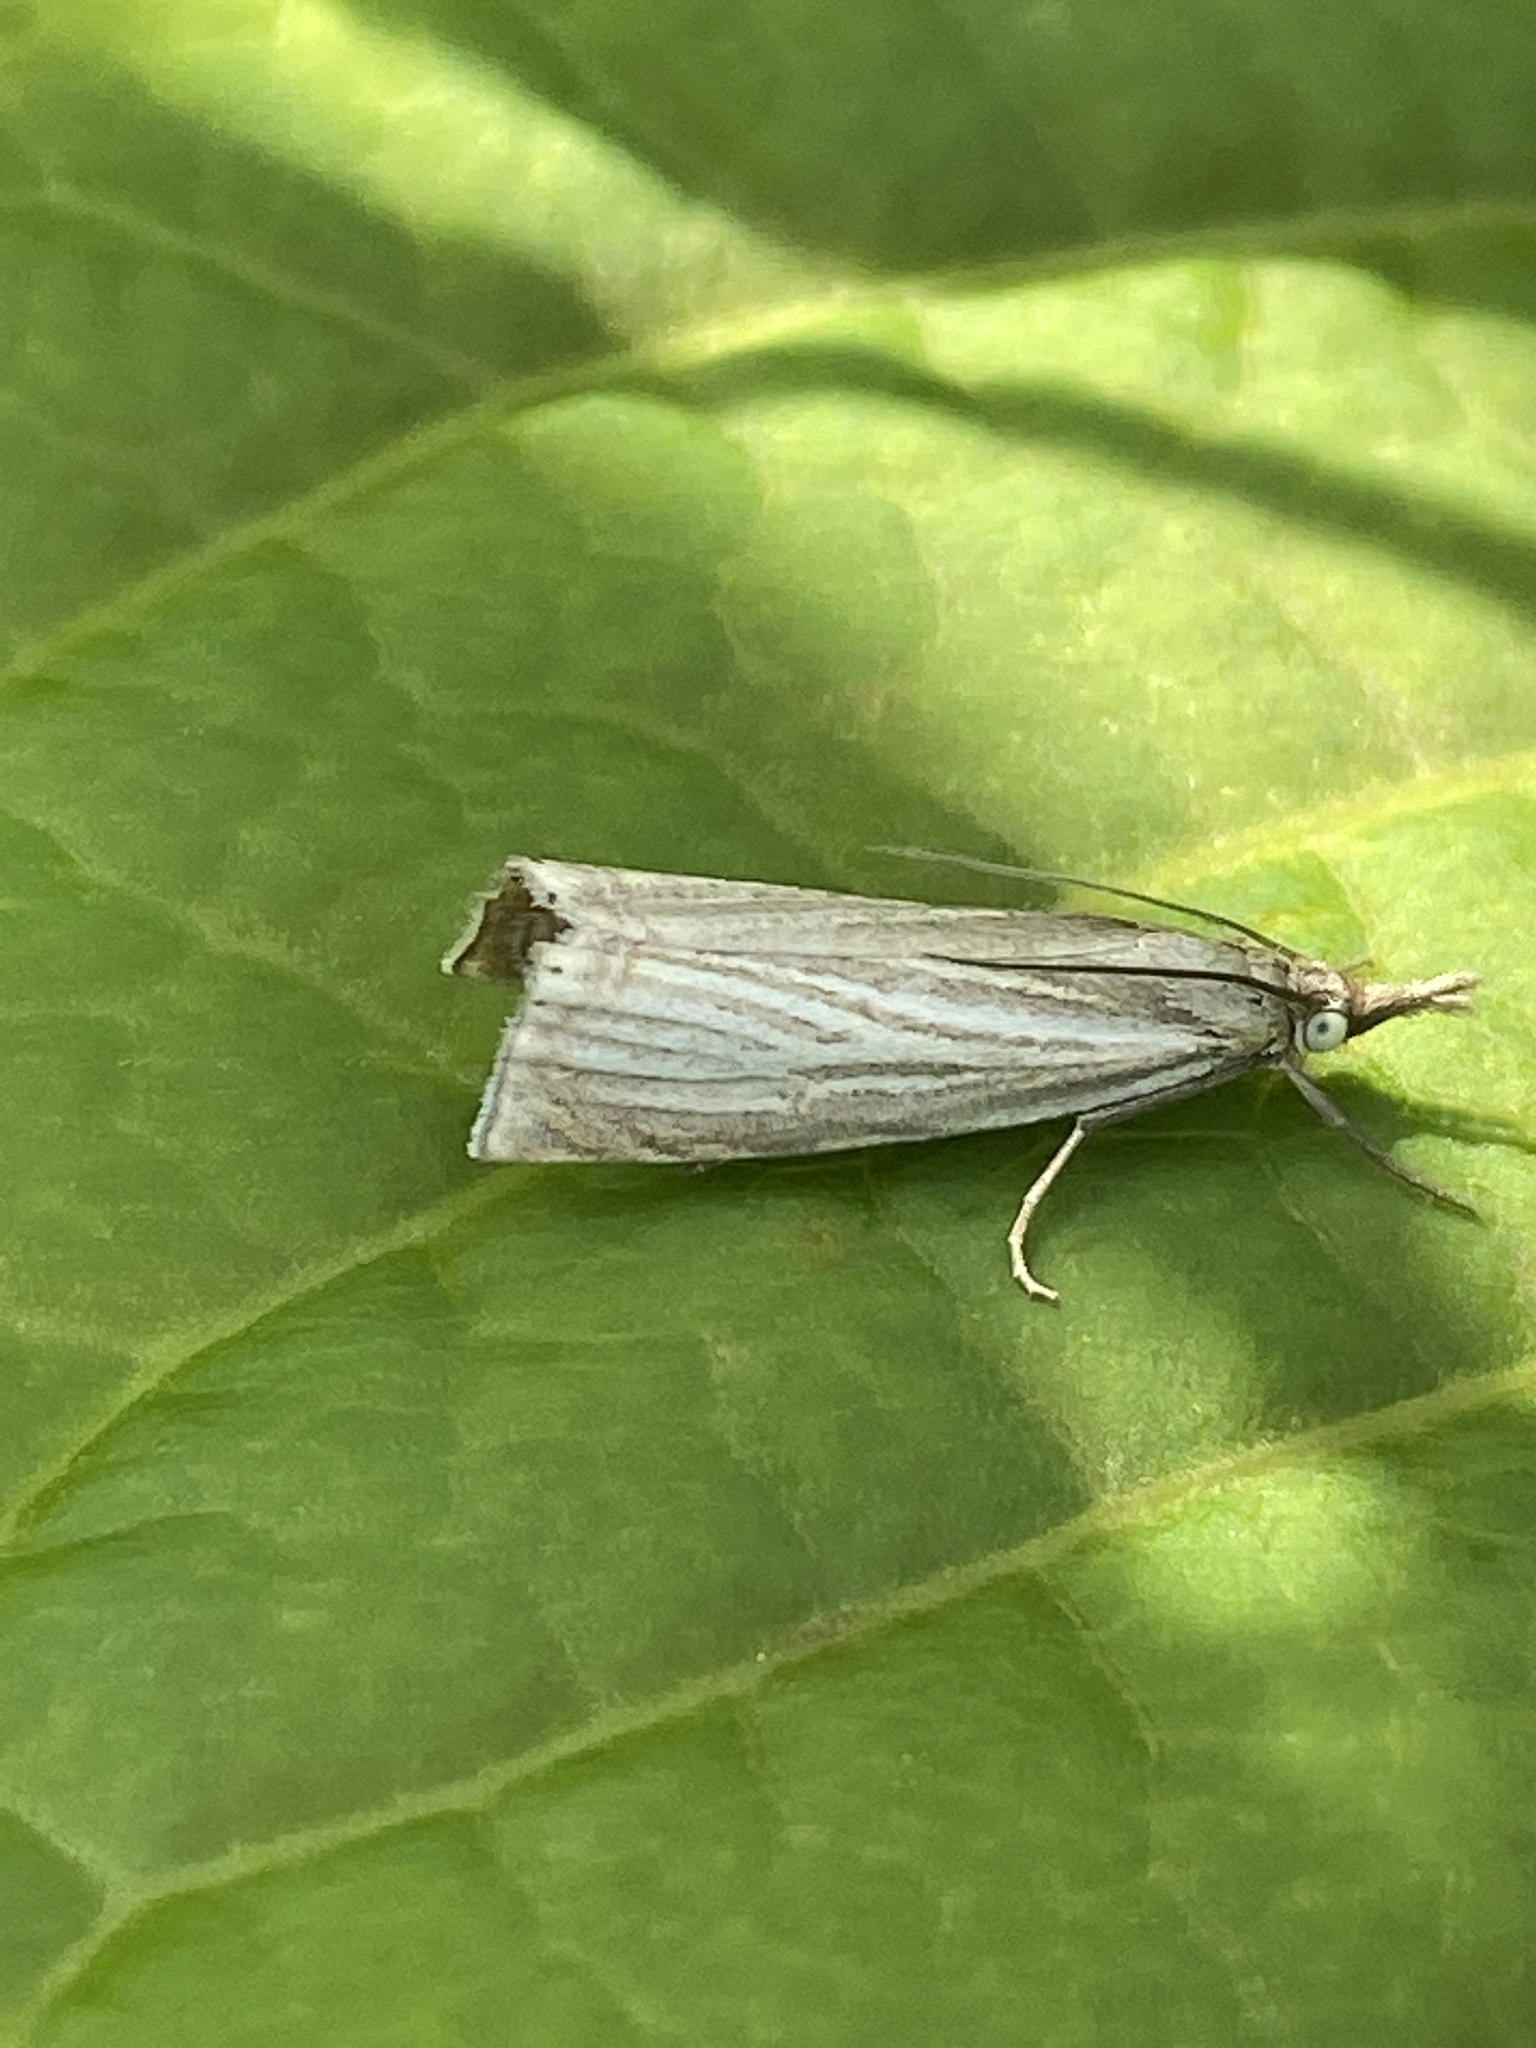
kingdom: Animalia
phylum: Arthropoda
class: Insecta
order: Lepidoptera
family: Crambidae
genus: Chrysoteuchia
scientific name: Chrysoteuchia culmella
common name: Garden grass-veneer
